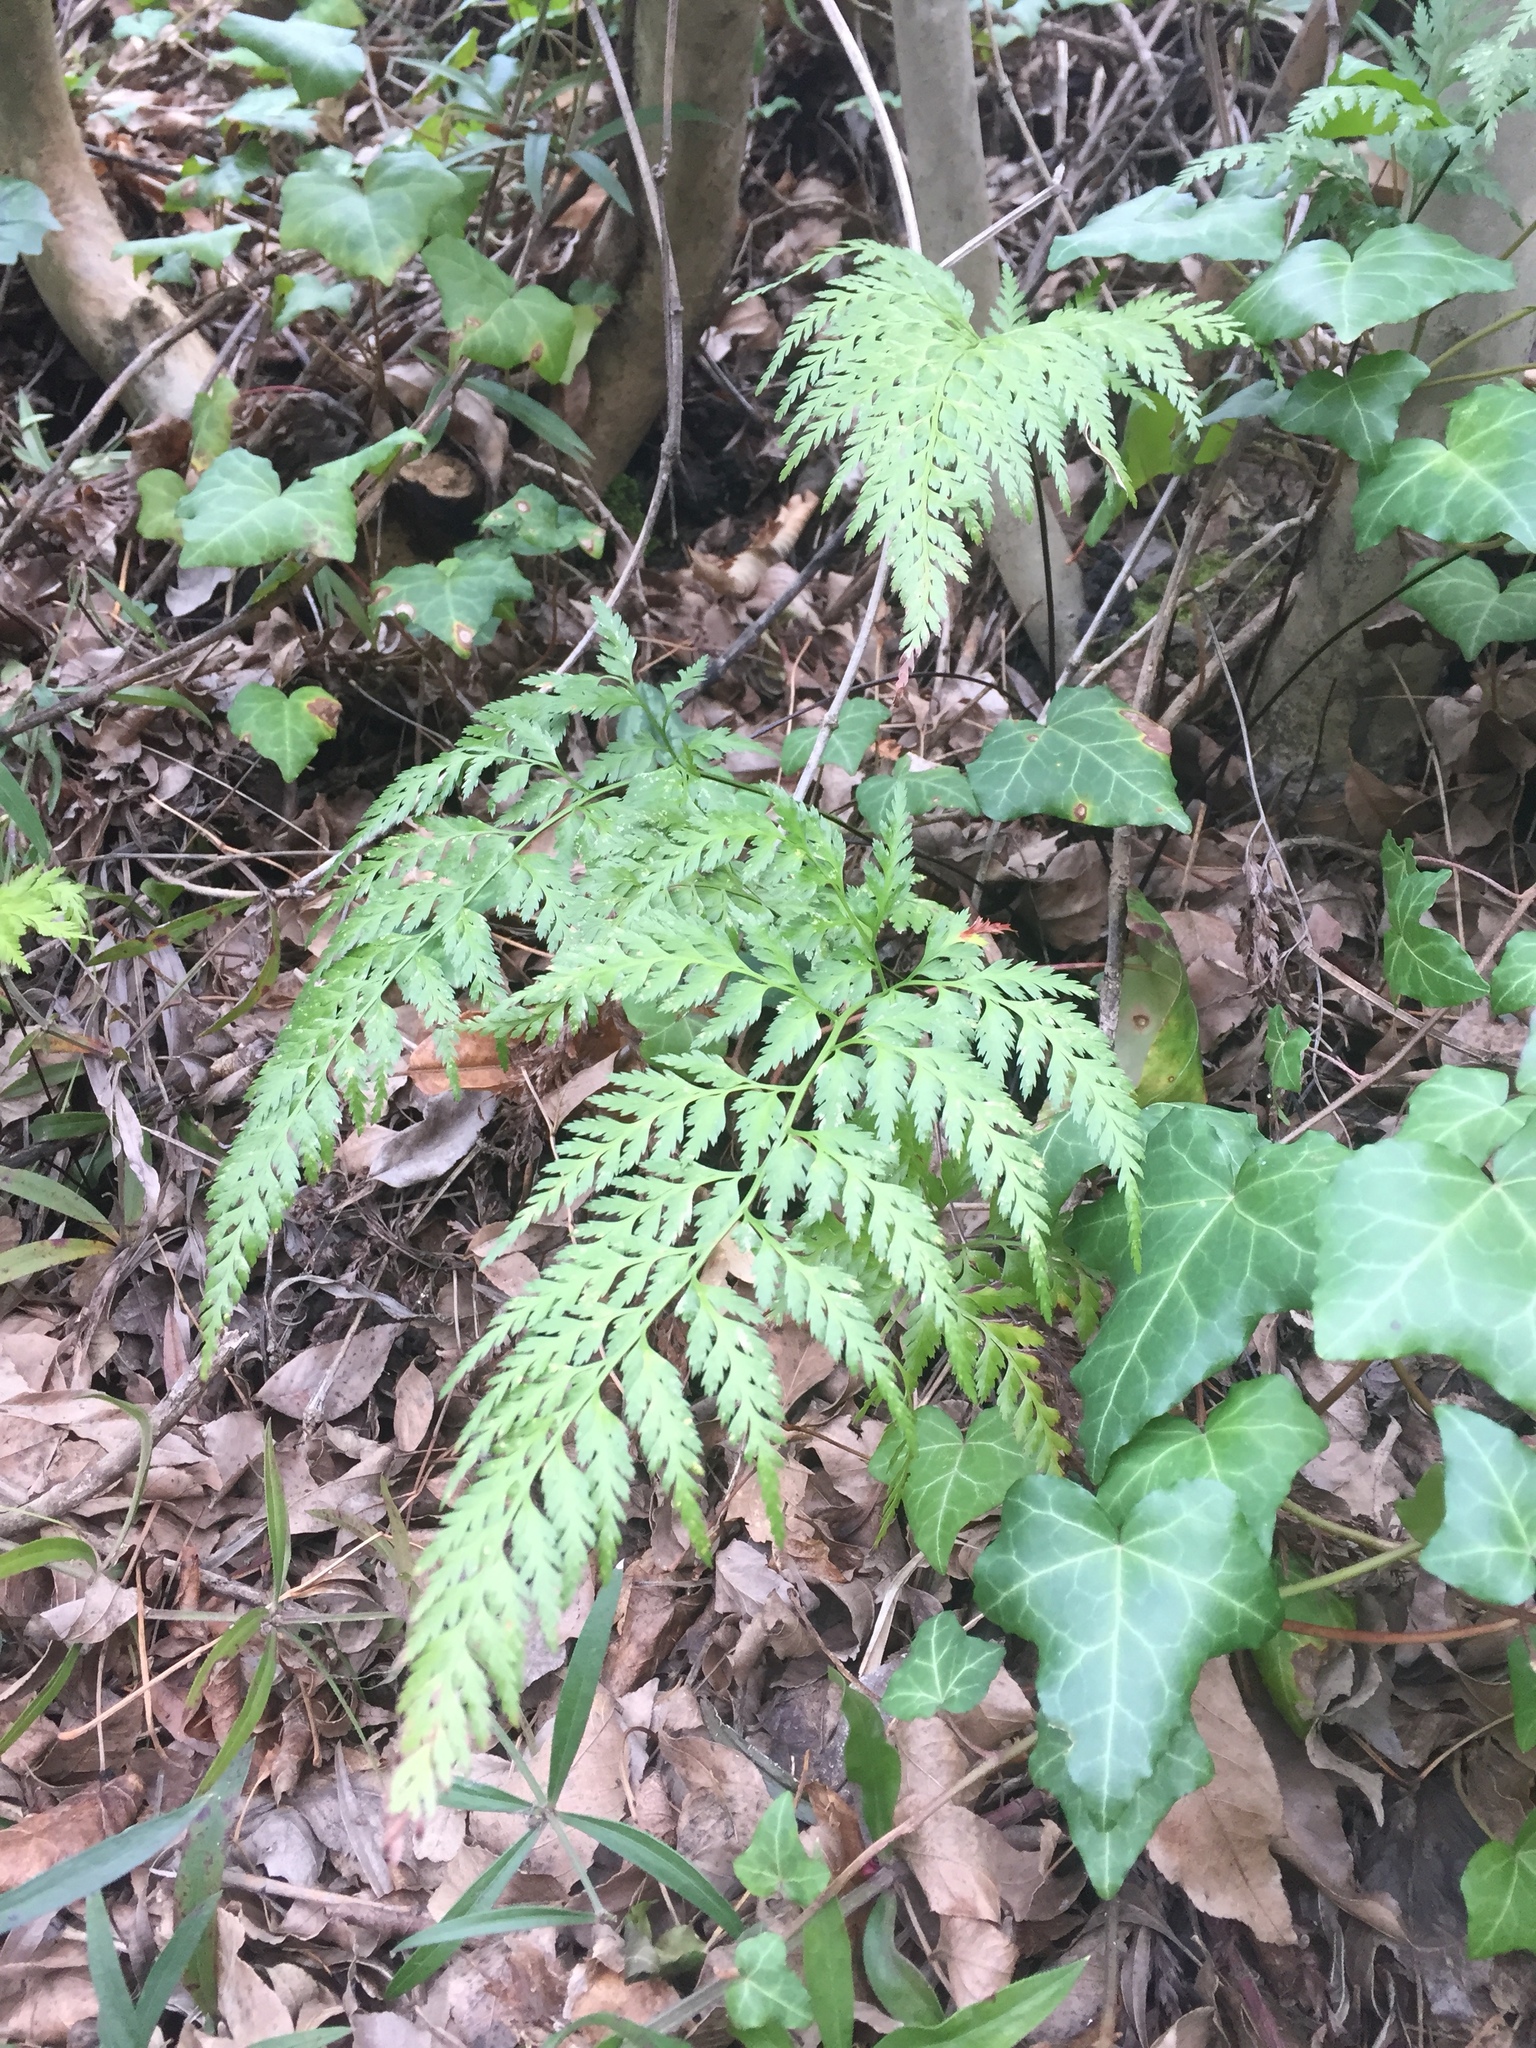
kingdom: Plantae
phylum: Tracheophyta
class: Polypodiopsida
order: Polypodiales
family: Aspleniaceae
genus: Asplenium
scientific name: Asplenium onopteris
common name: Irish spleenwort
